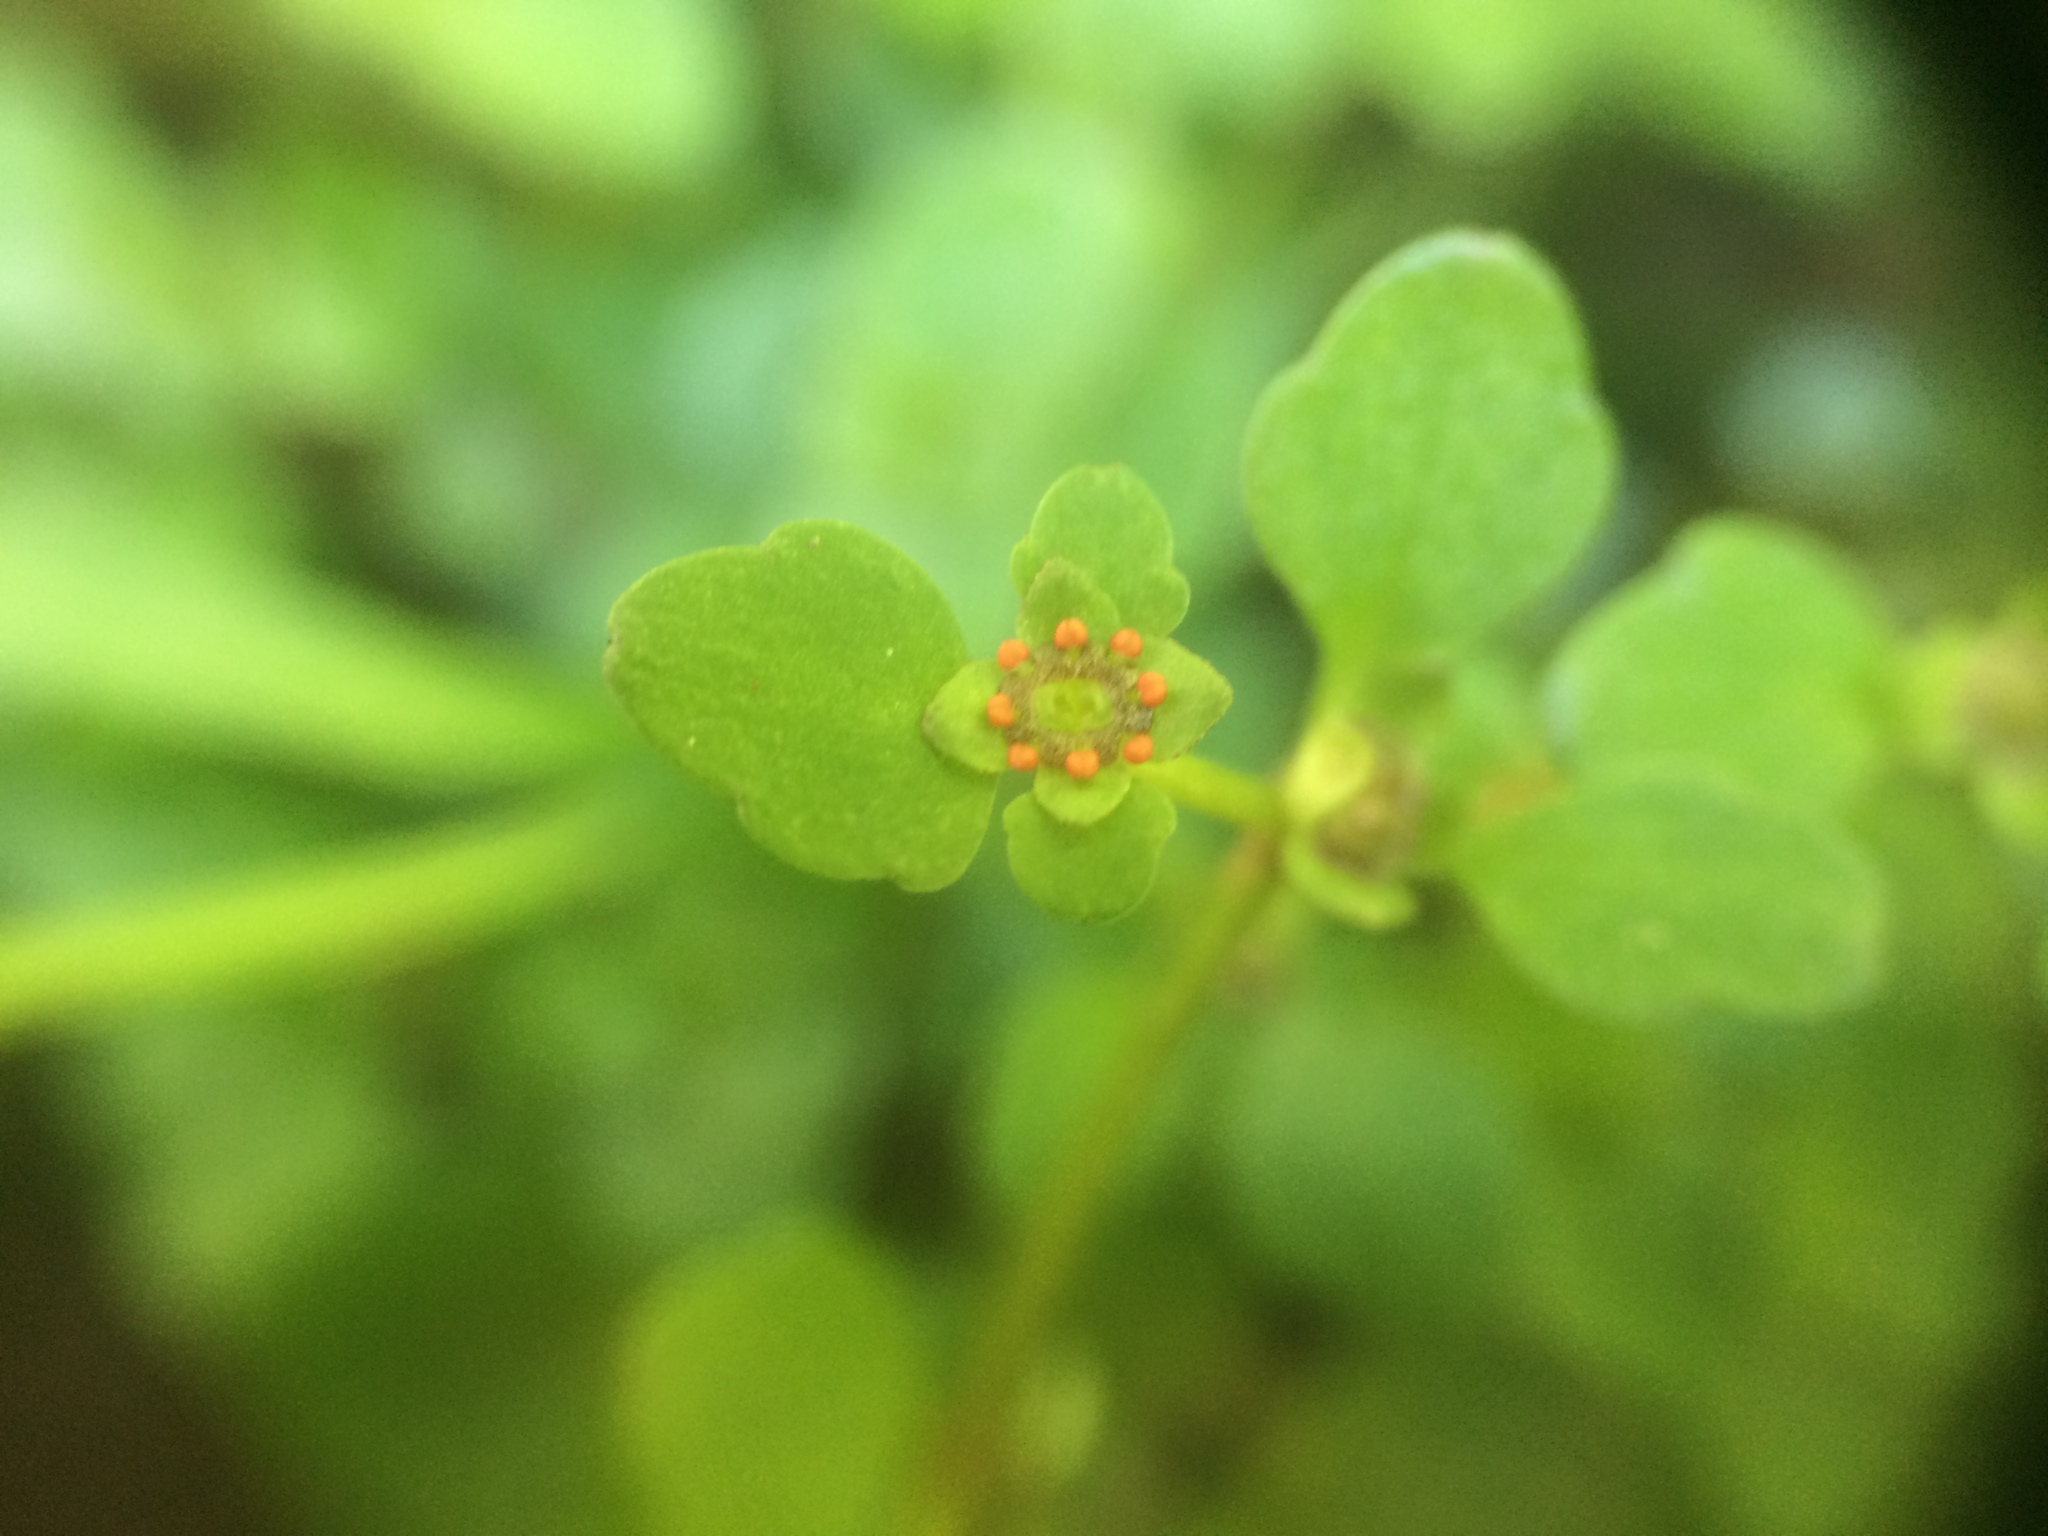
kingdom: Plantae
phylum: Tracheophyta
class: Magnoliopsida
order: Saxifragales
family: Saxifragaceae
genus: Chrysosplenium
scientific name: Chrysosplenium americanum
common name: American golden-saxifrage
